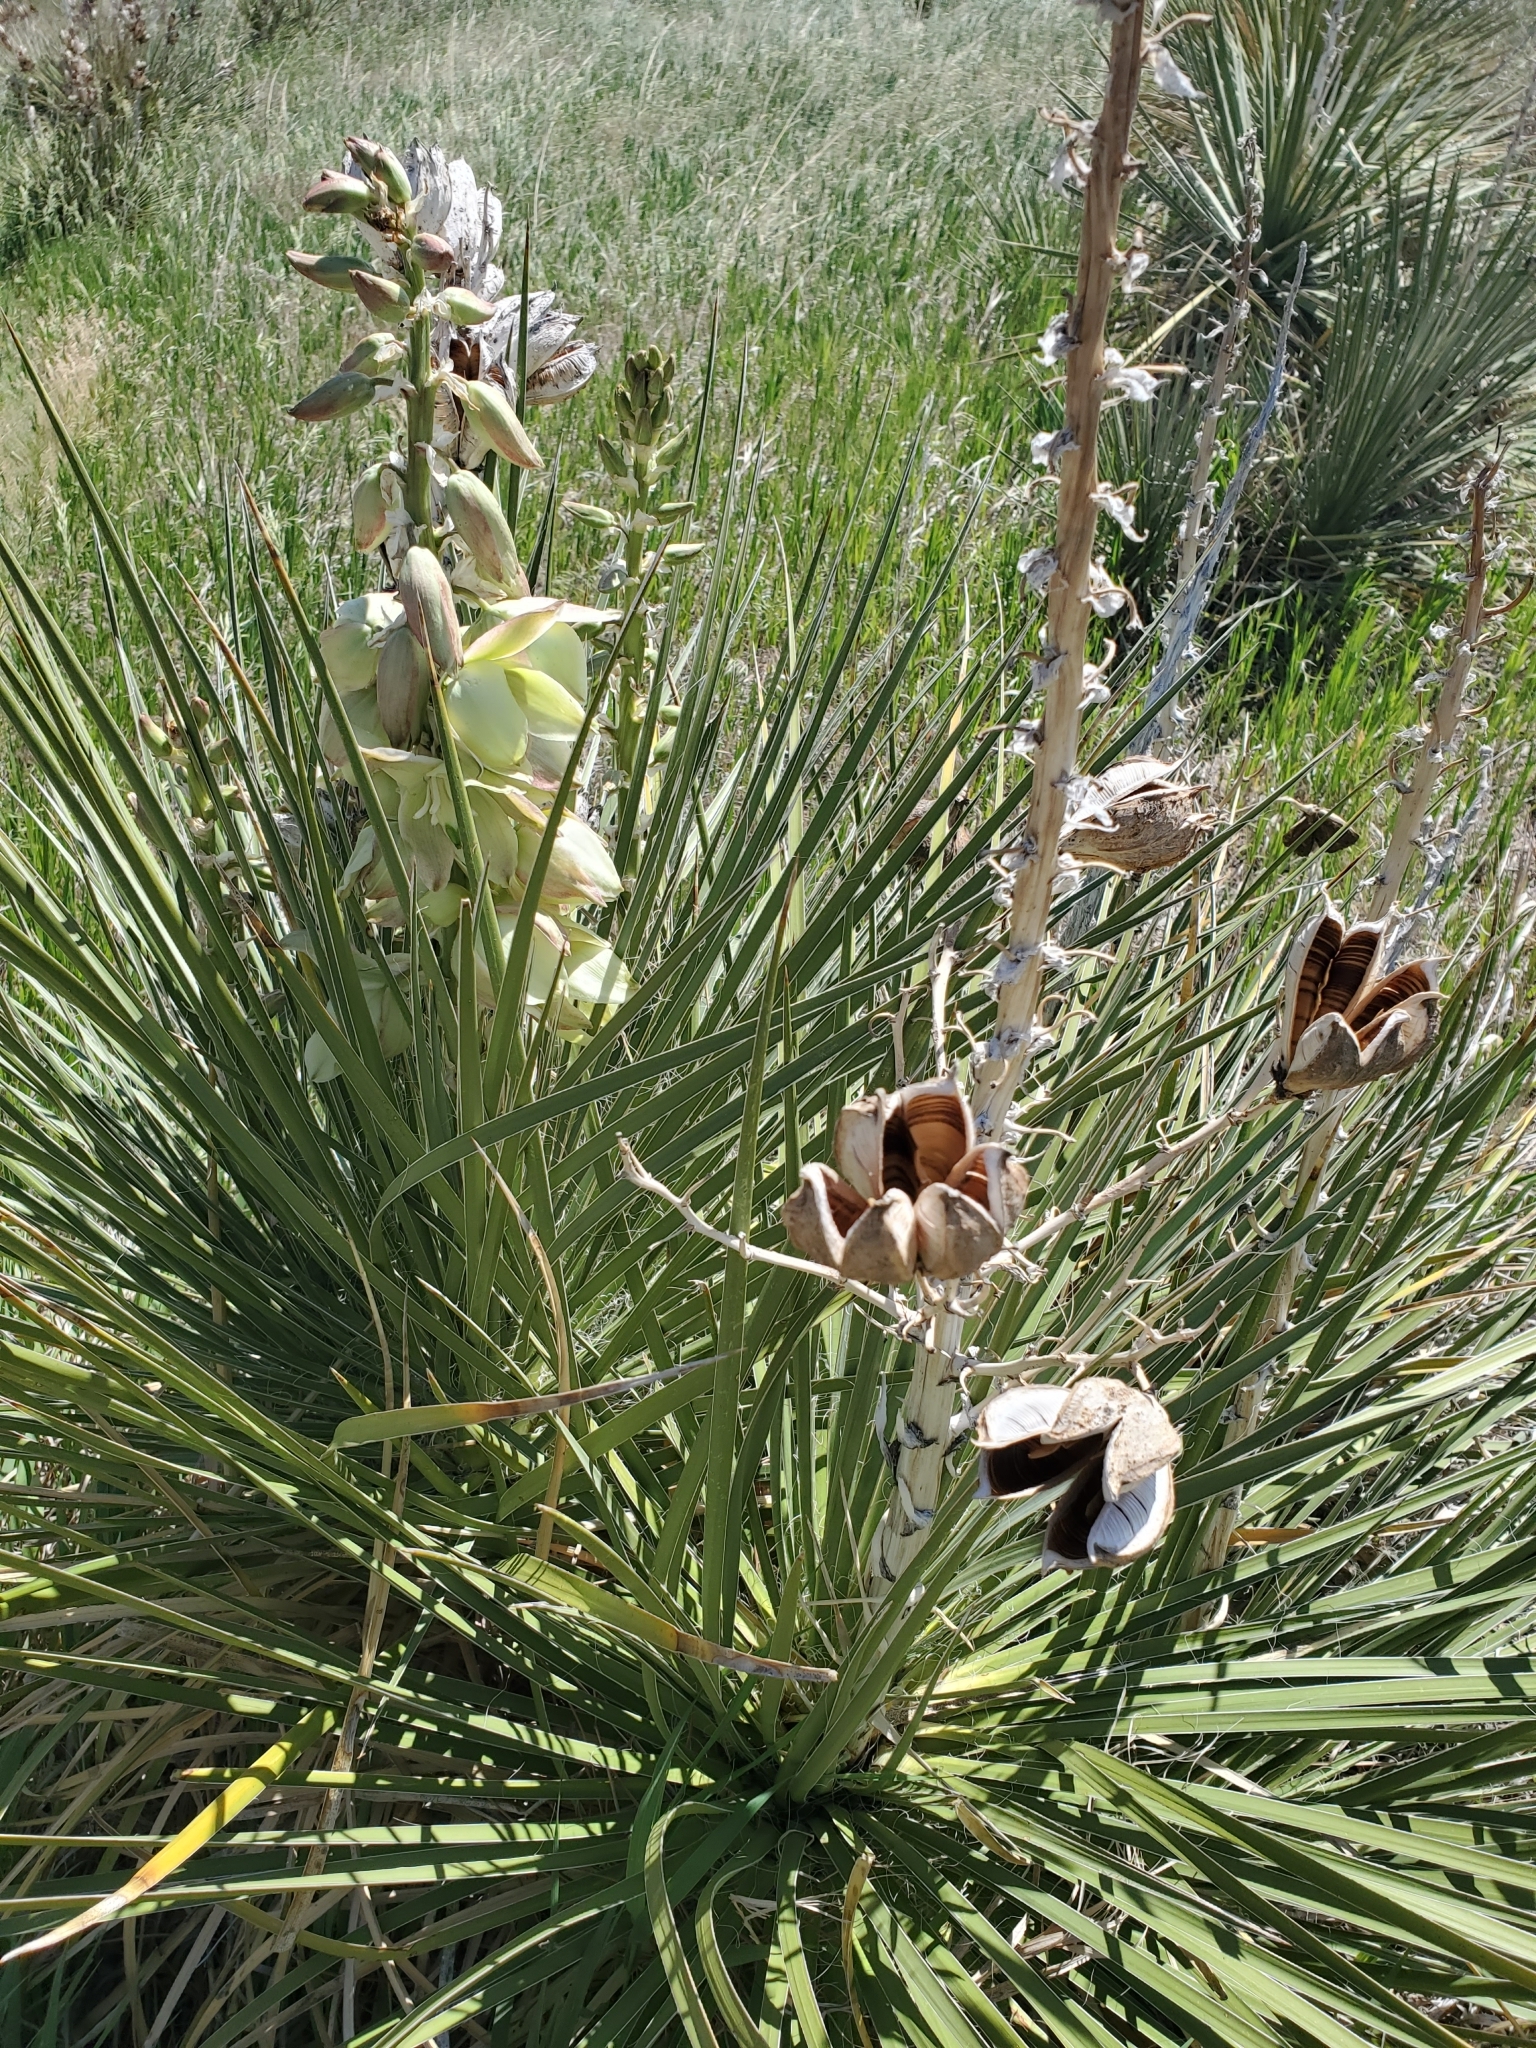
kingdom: Plantae
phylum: Tracheophyta
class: Liliopsida
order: Asparagales
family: Asparagaceae
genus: Yucca
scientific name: Yucca glauca
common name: Great plains yucca
